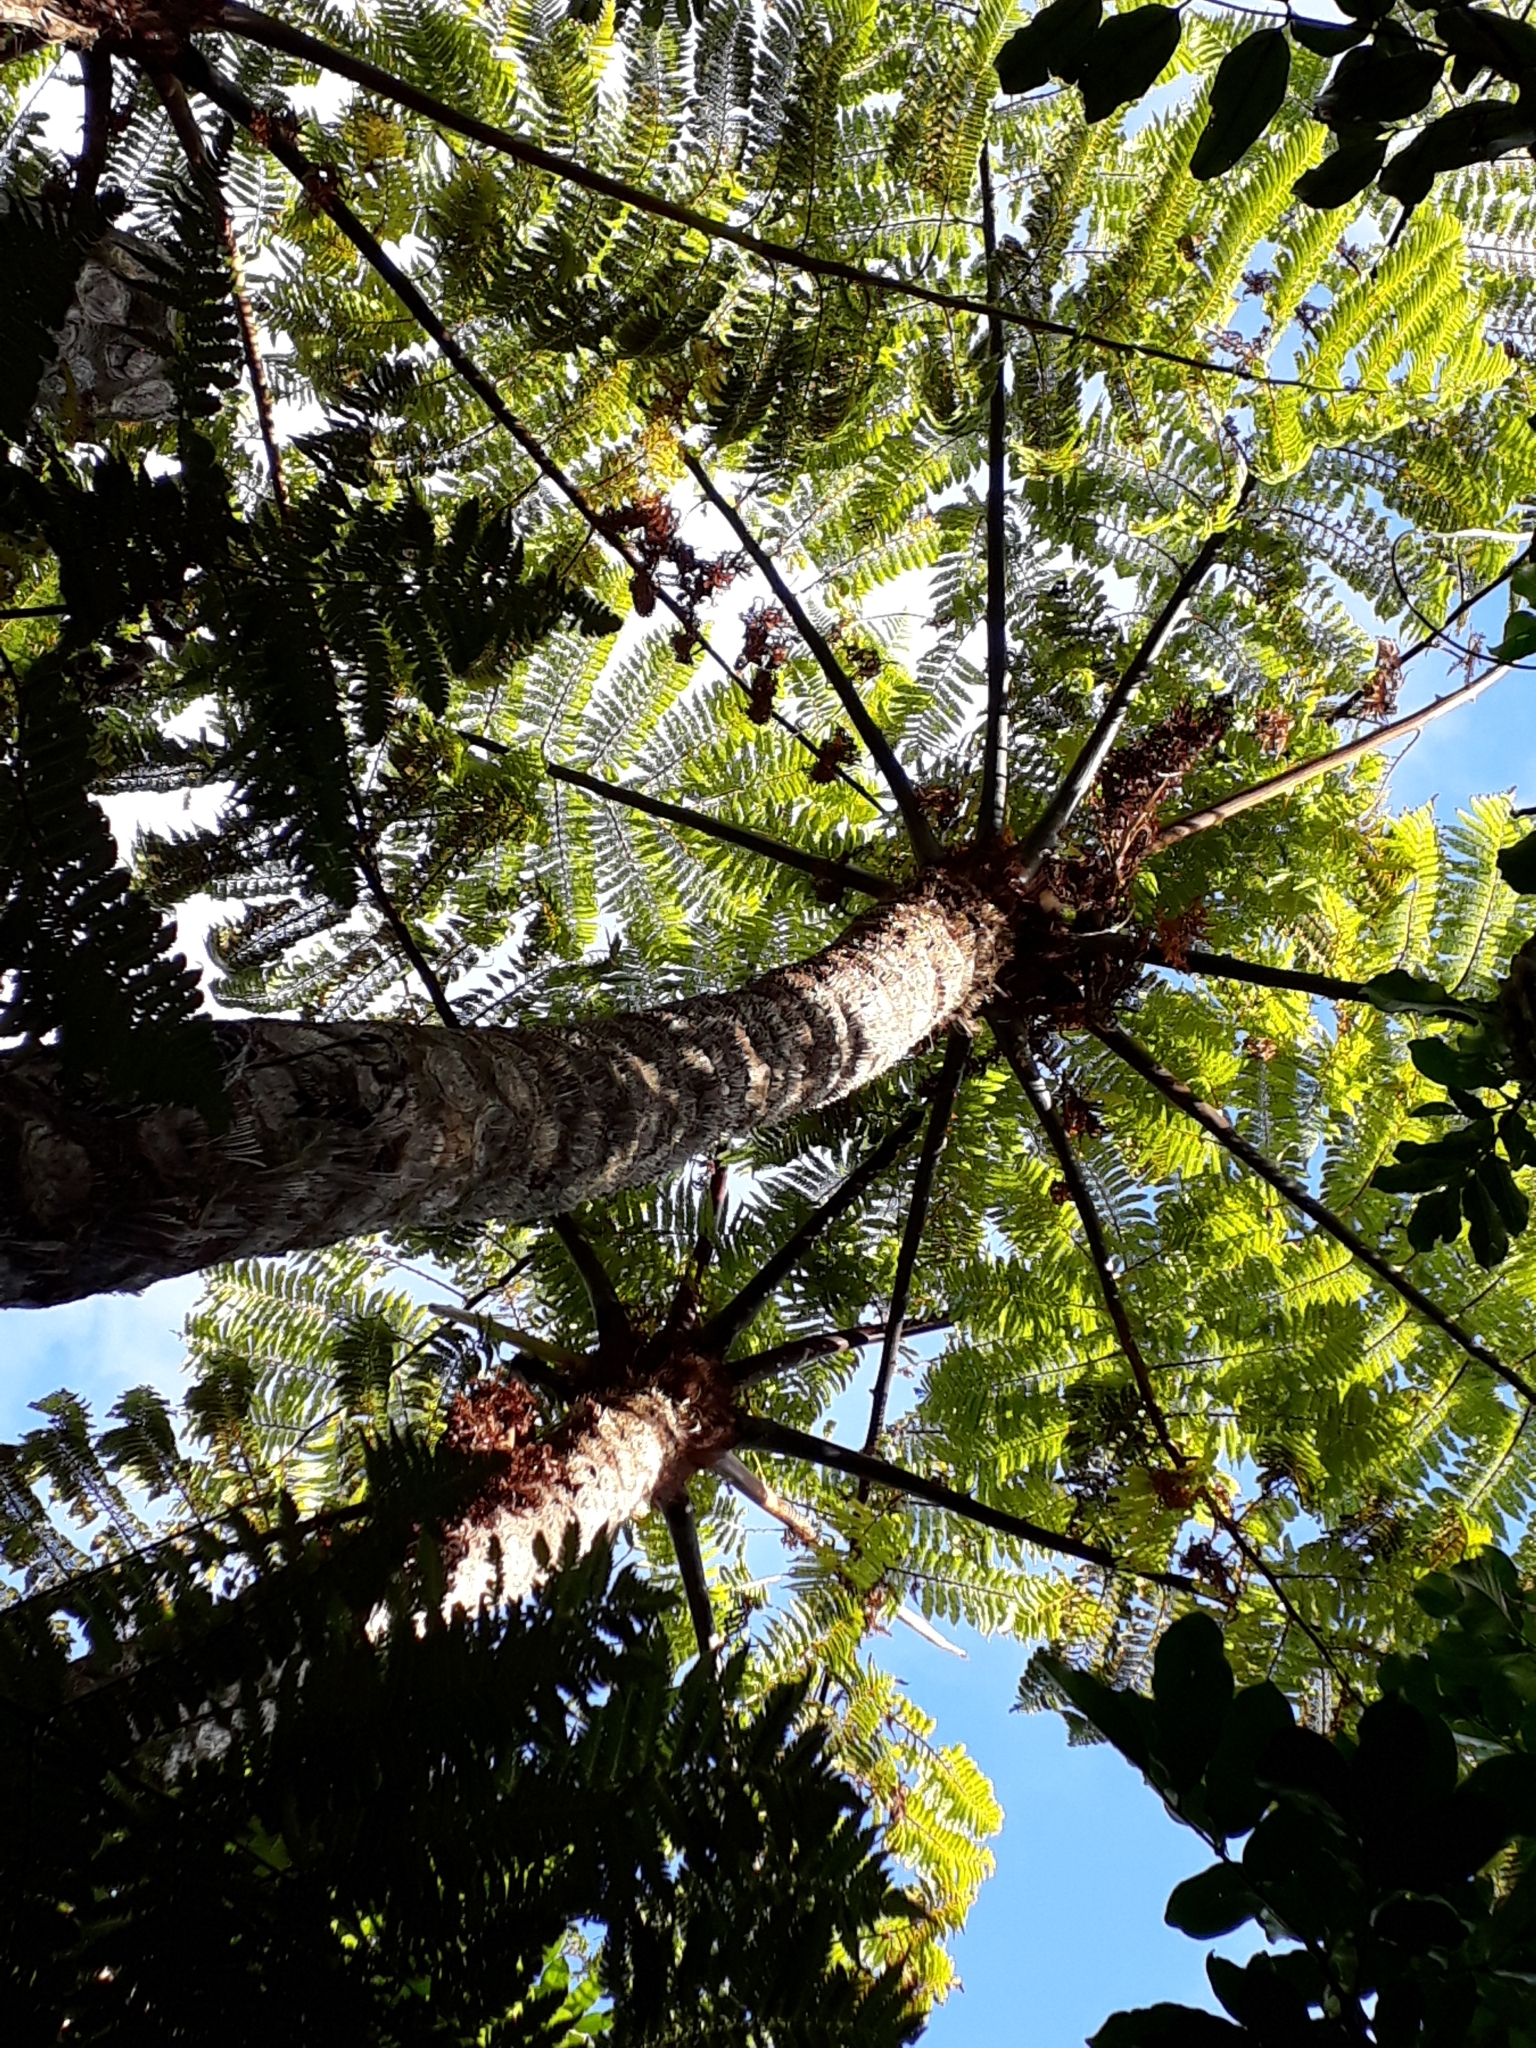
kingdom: Plantae
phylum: Tracheophyta
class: Polypodiopsida
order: Cyatheales
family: Cyatheaceae
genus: Sphaeropteris
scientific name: Sphaeropteris medullaris
